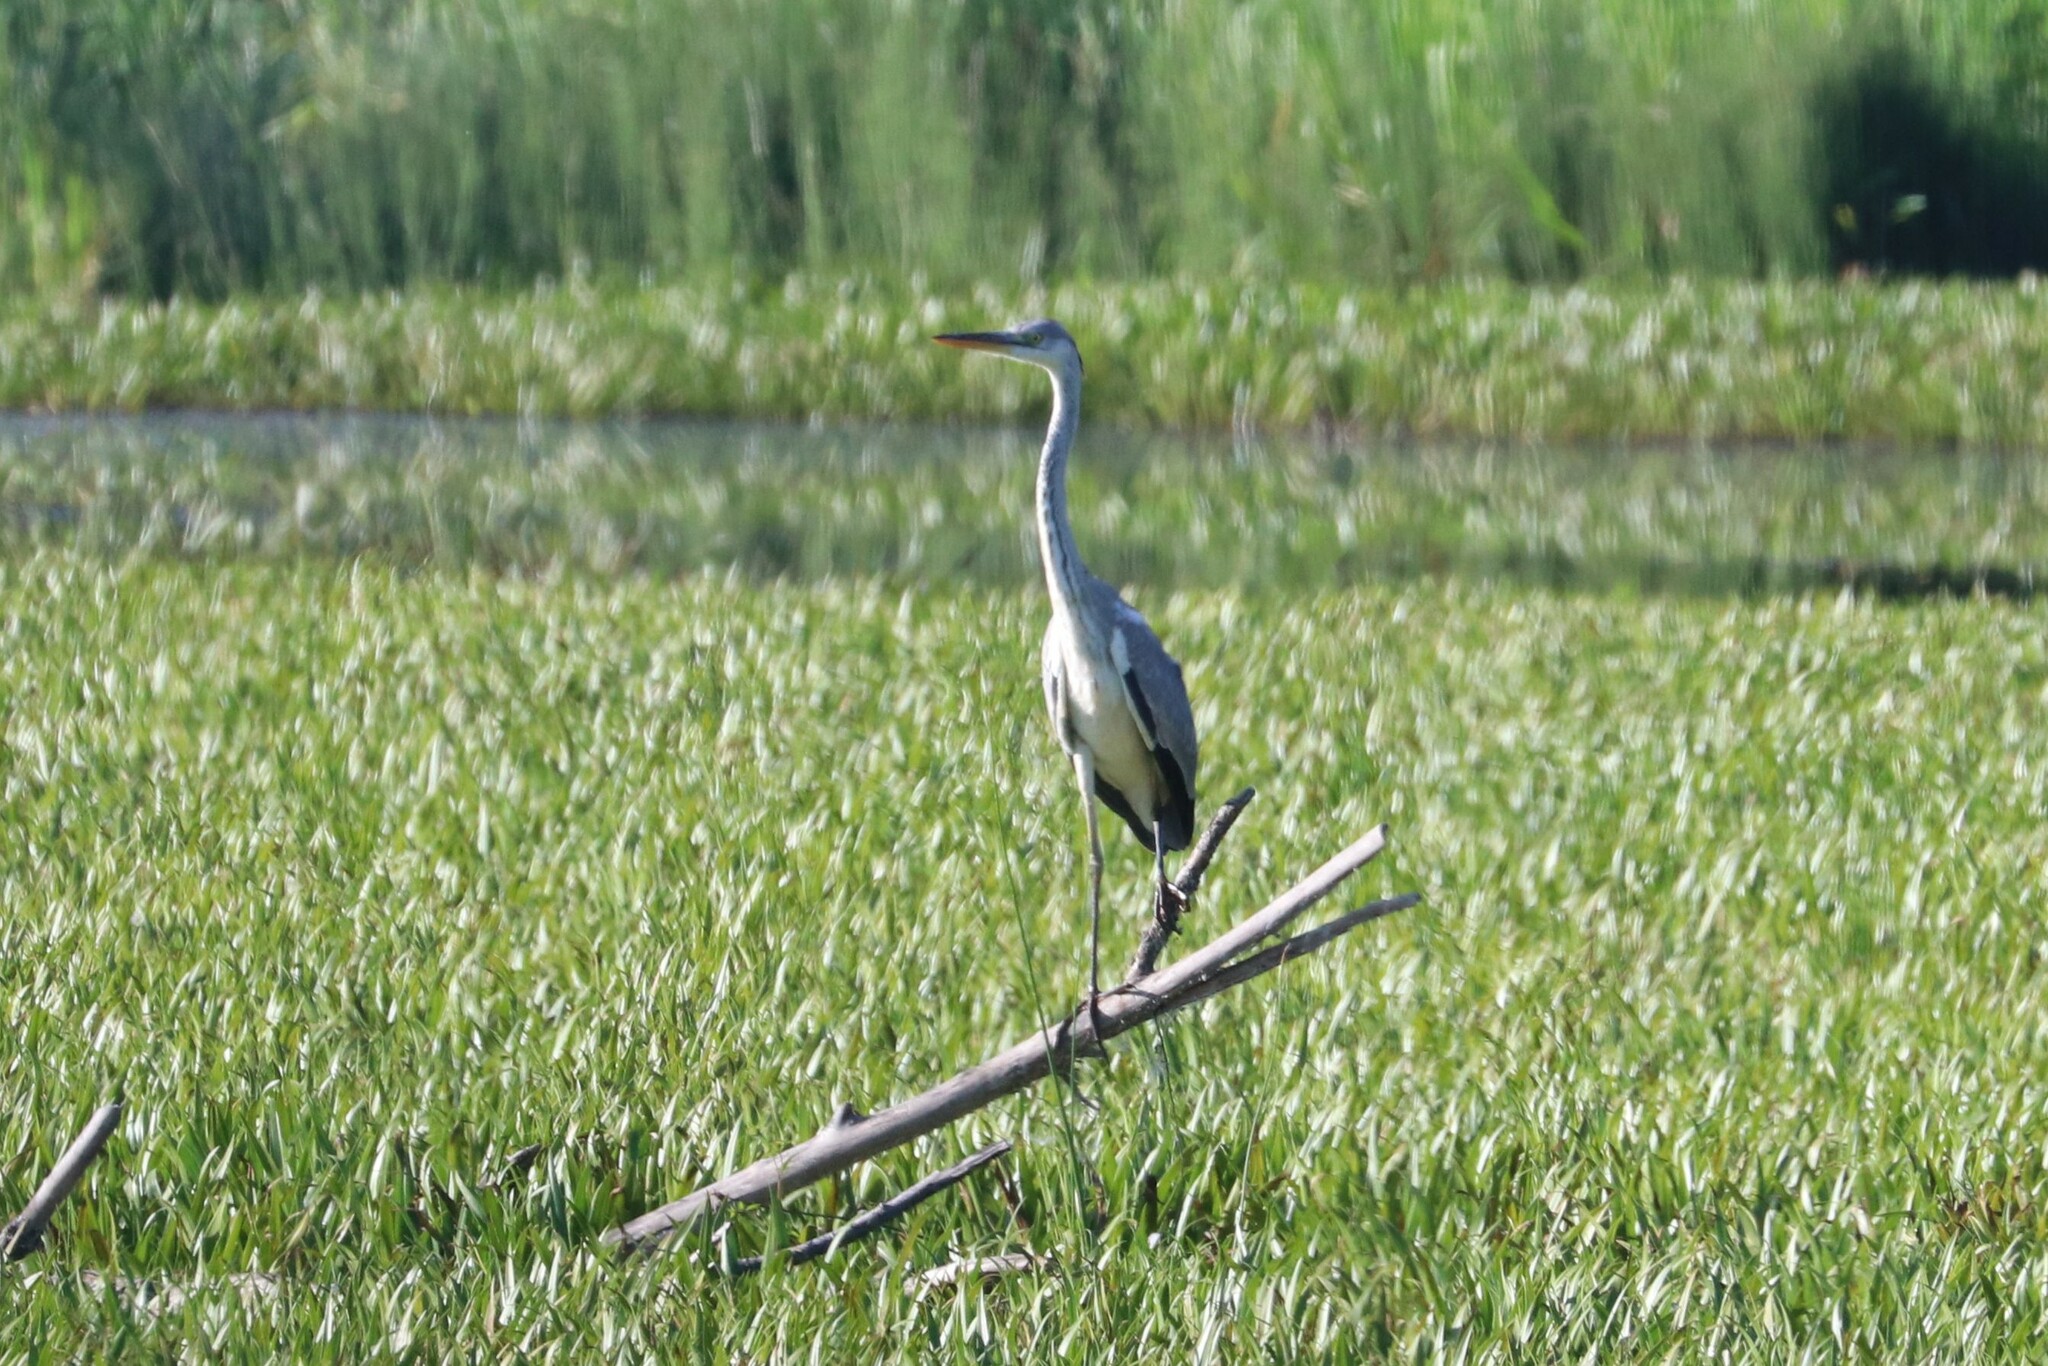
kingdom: Animalia
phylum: Chordata
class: Aves
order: Pelecaniformes
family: Ardeidae
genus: Ardea
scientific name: Ardea cinerea
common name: Grey heron
